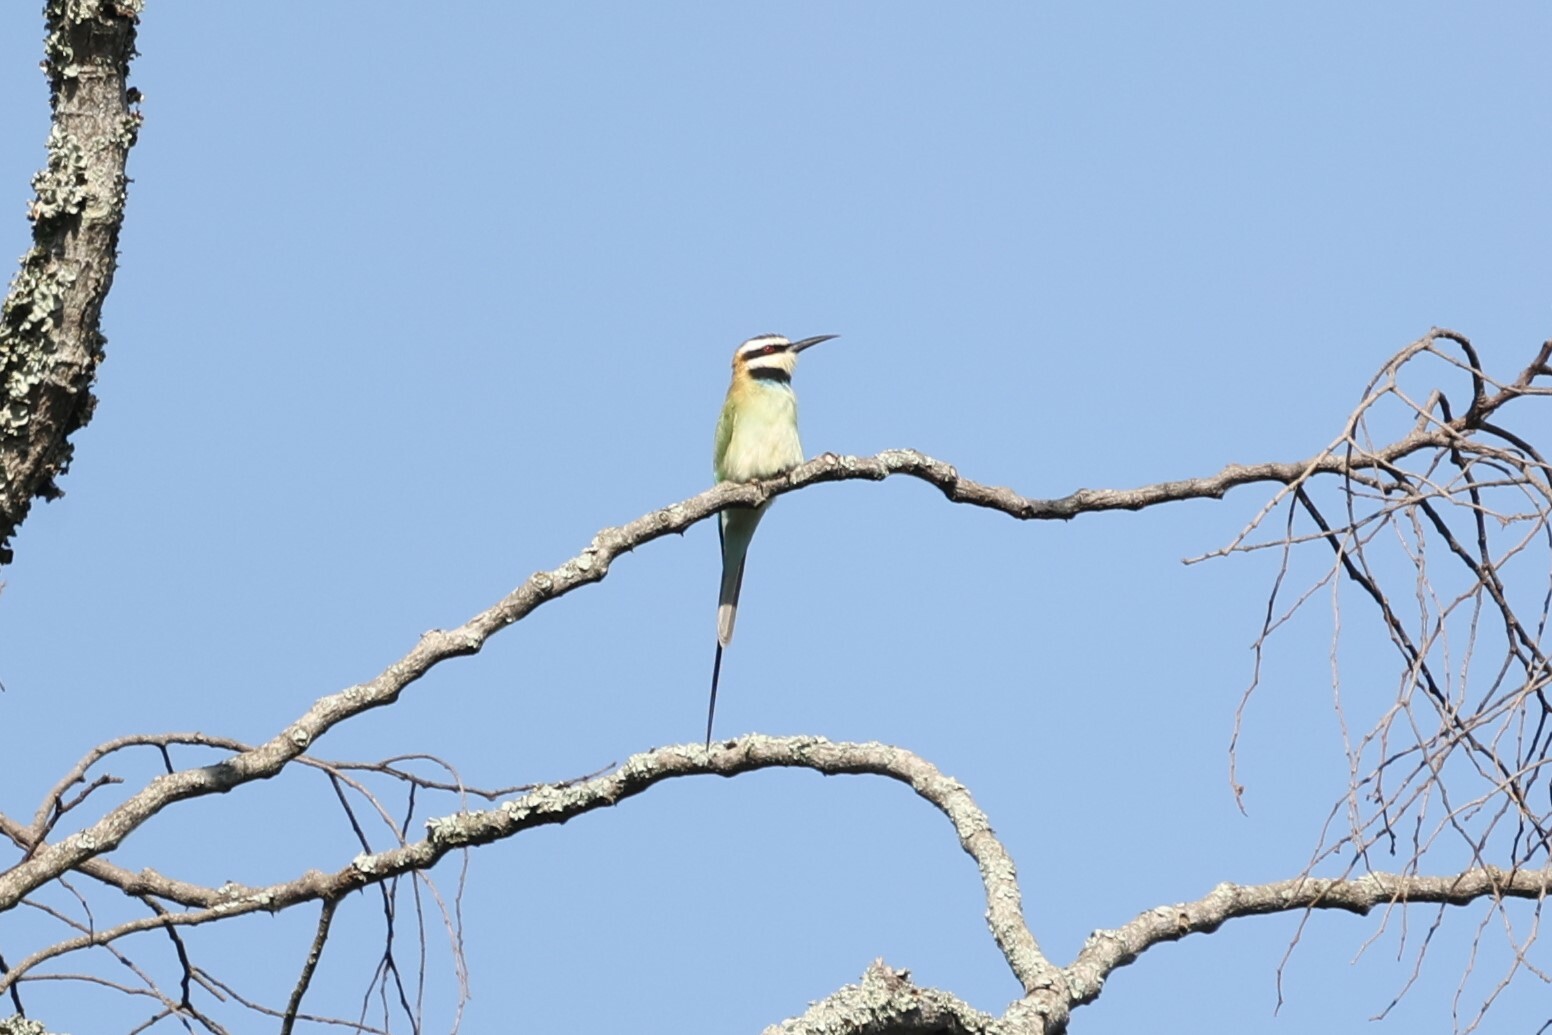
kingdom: Animalia
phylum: Chordata
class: Aves
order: Coraciiformes
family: Meropidae
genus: Merops
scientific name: Merops albicollis
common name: White-throated bee-eater
